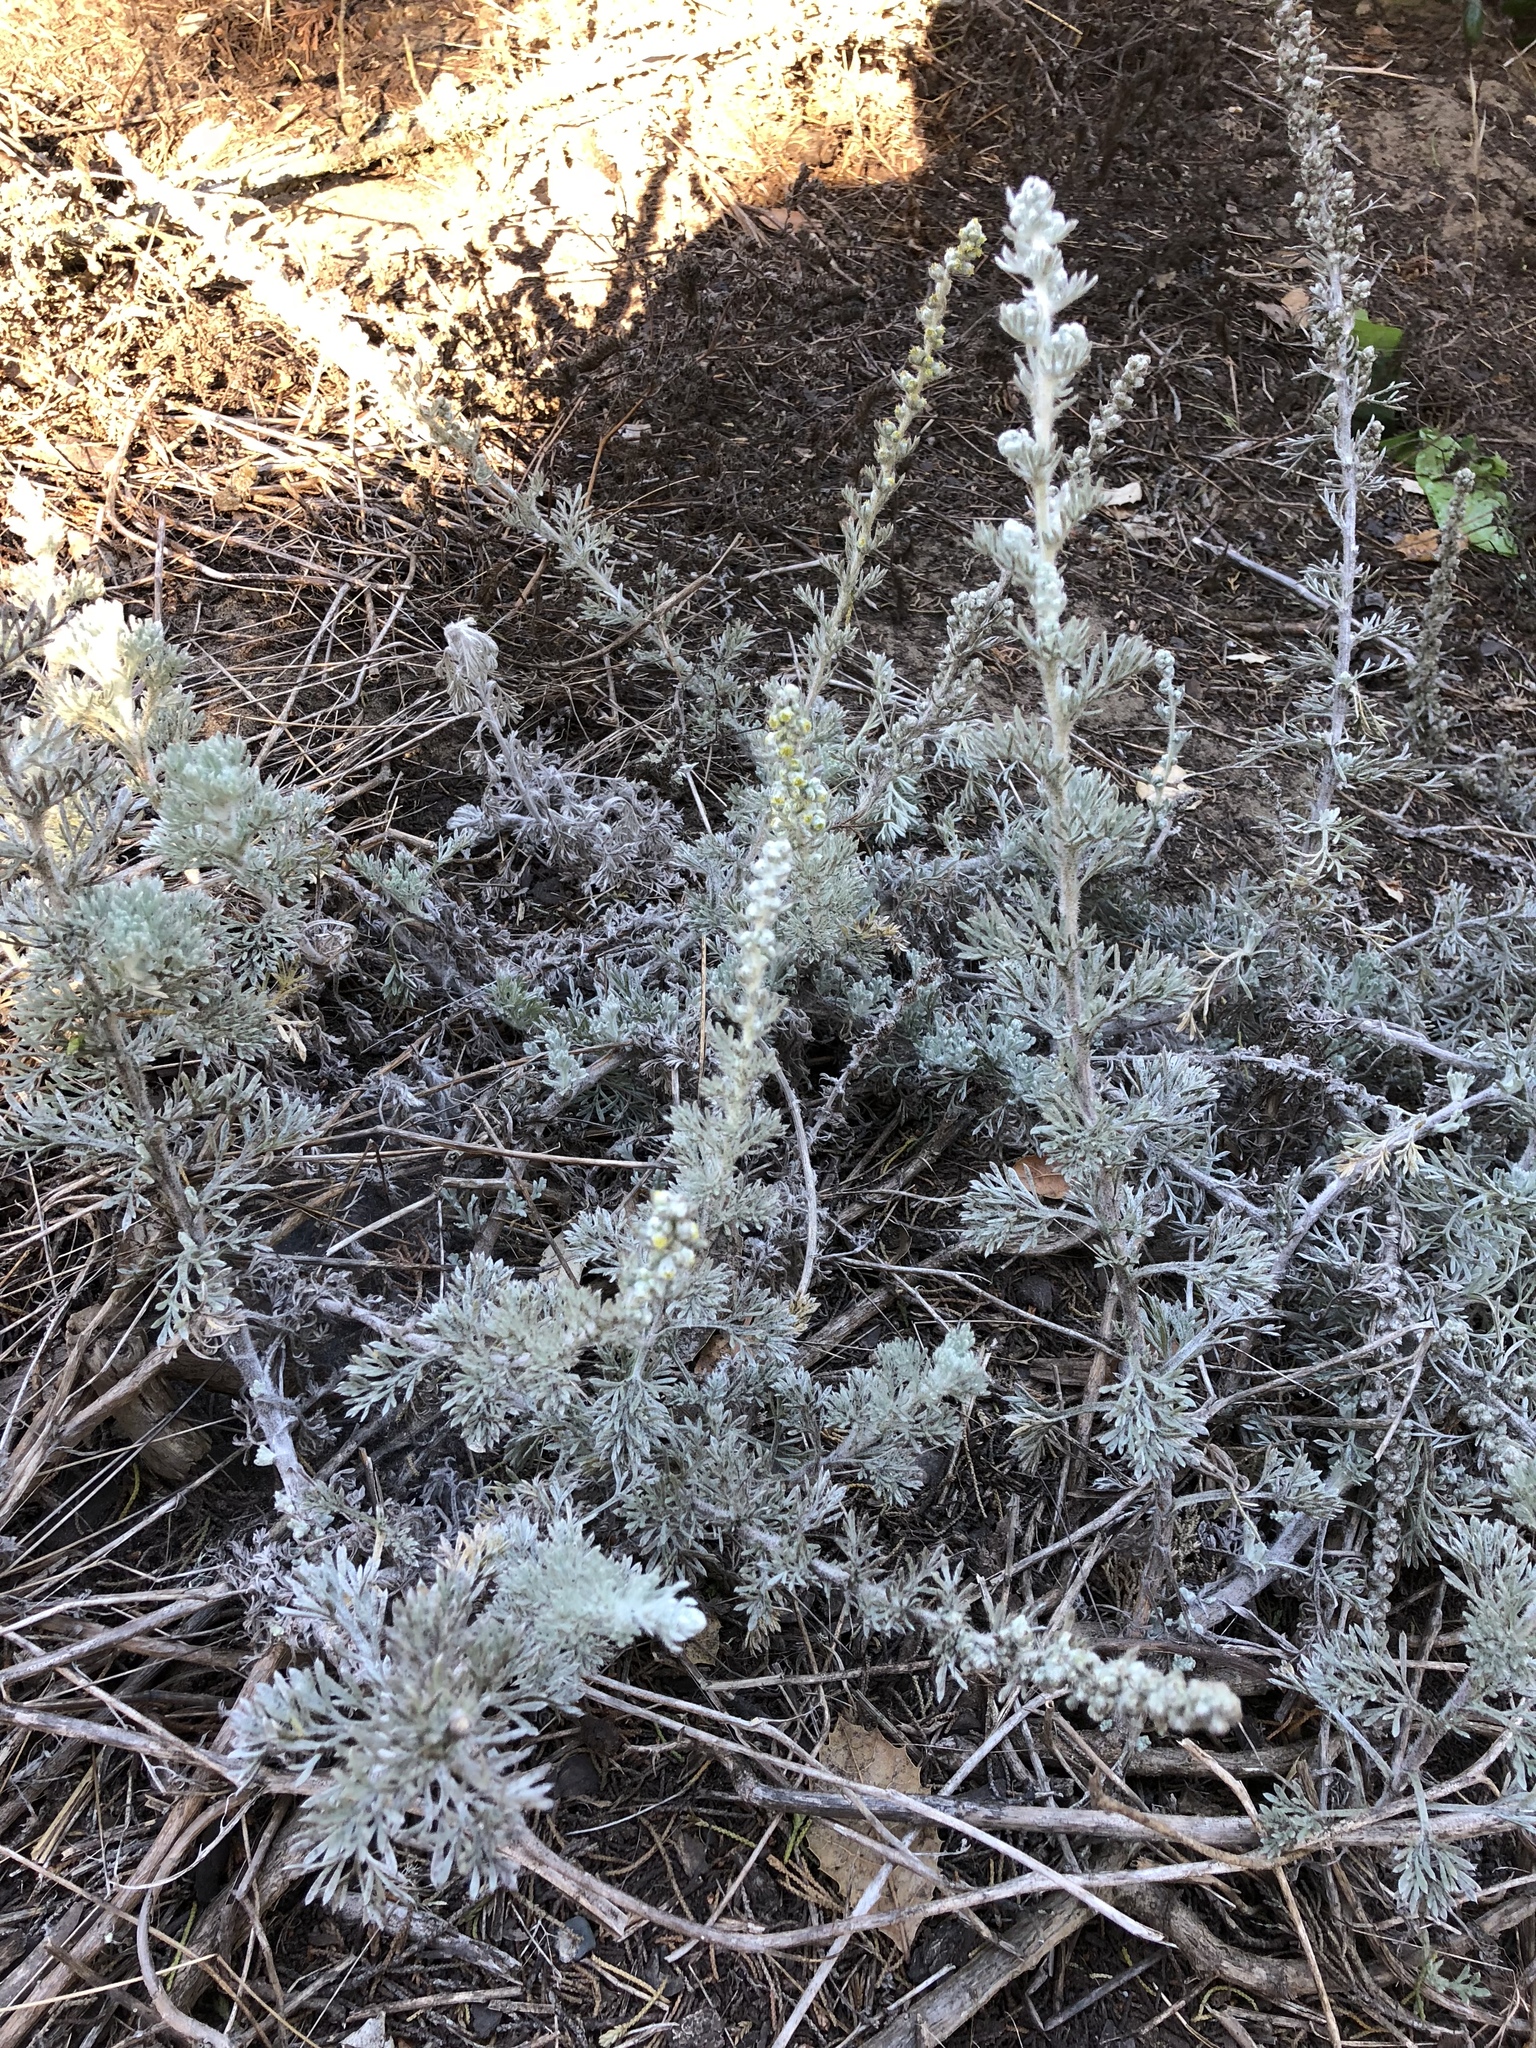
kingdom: Plantae
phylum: Tracheophyta
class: Magnoliopsida
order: Asterales
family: Asteraceae
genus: Artemisia
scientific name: Artemisia pycnocephala
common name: Coastal sagewort
